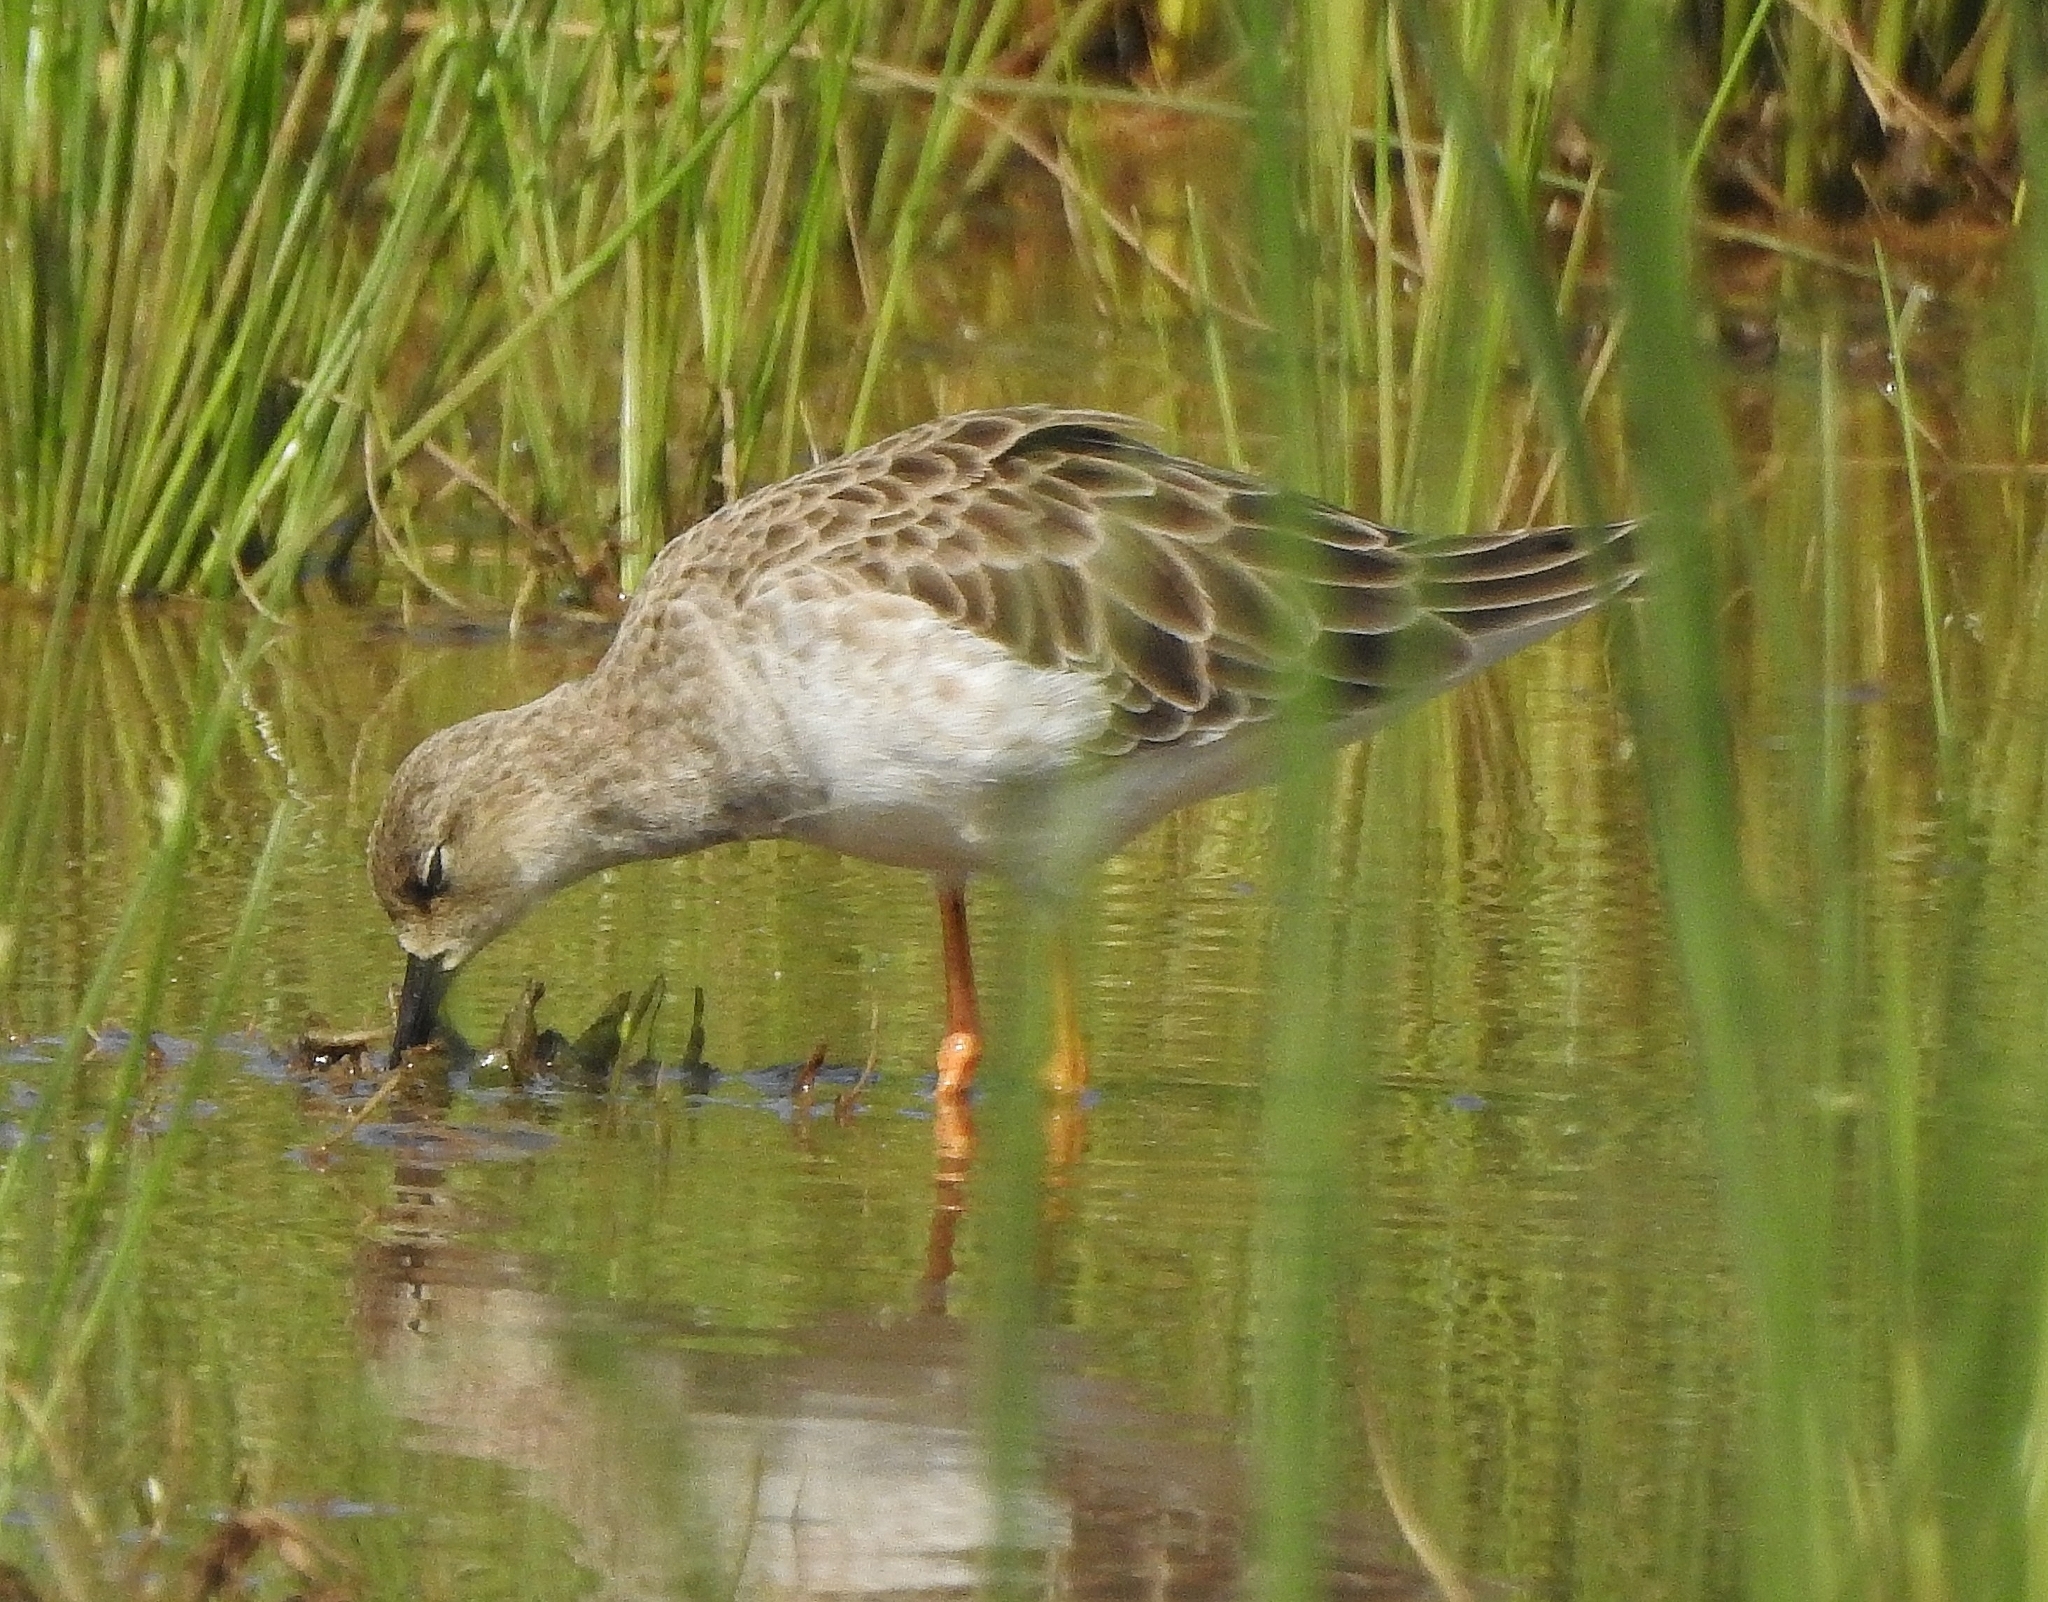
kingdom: Animalia
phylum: Chordata
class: Aves
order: Charadriiformes
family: Scolopacidae
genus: Calidris
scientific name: Calidris pugnax
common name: Ruff
